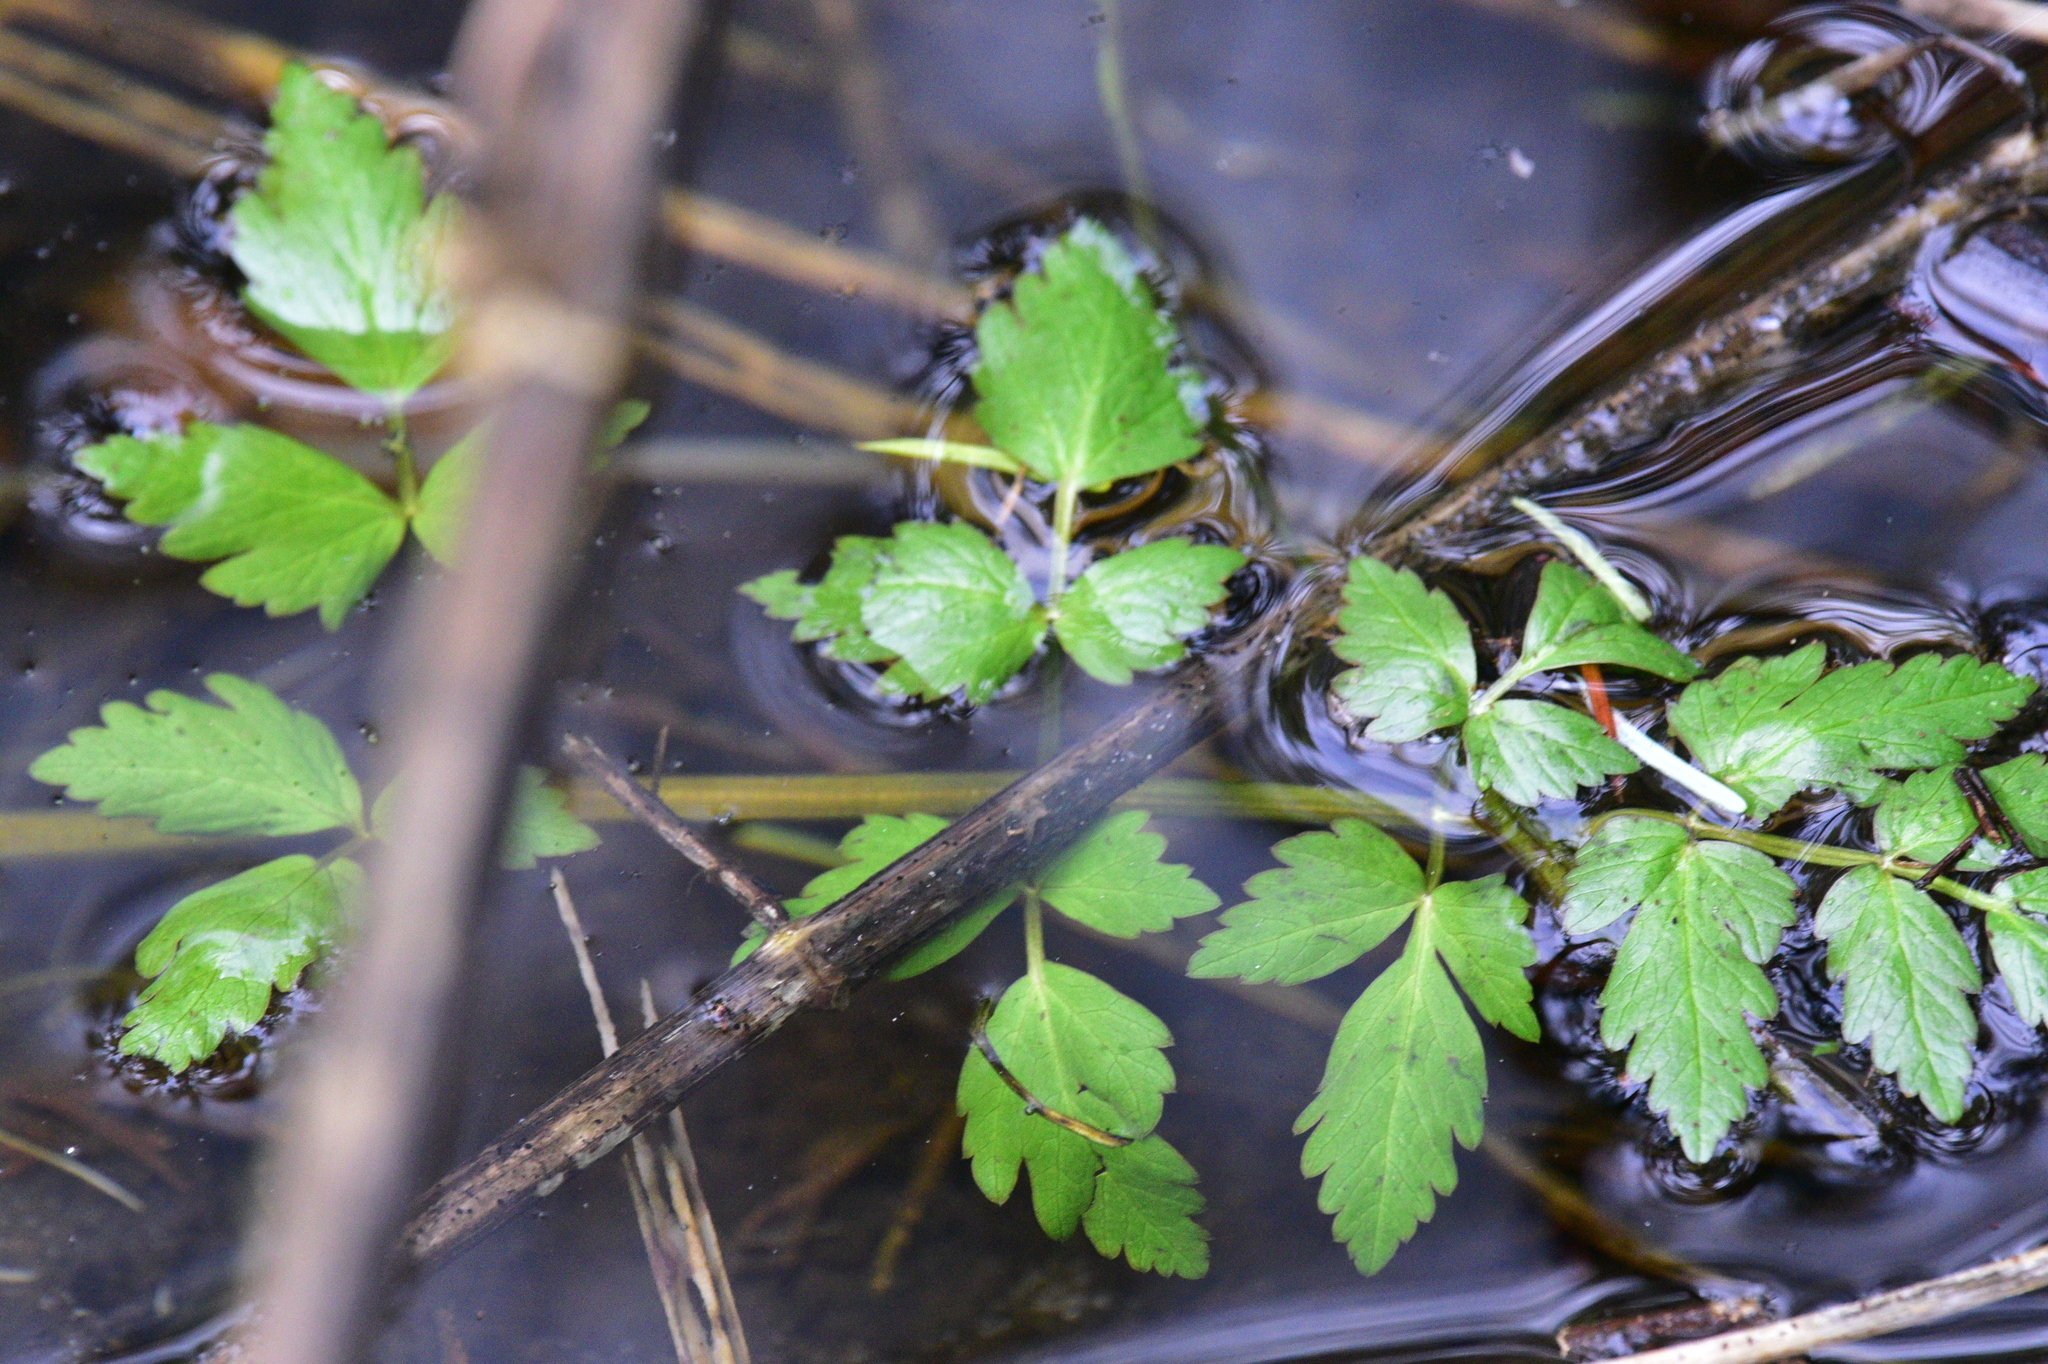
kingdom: Plantae
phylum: Tracheophyta
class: Magnoliopsida
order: Apiales
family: Apiaceae
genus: Oenanthe
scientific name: Oenanthe sarmentosa
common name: American water-parsley
